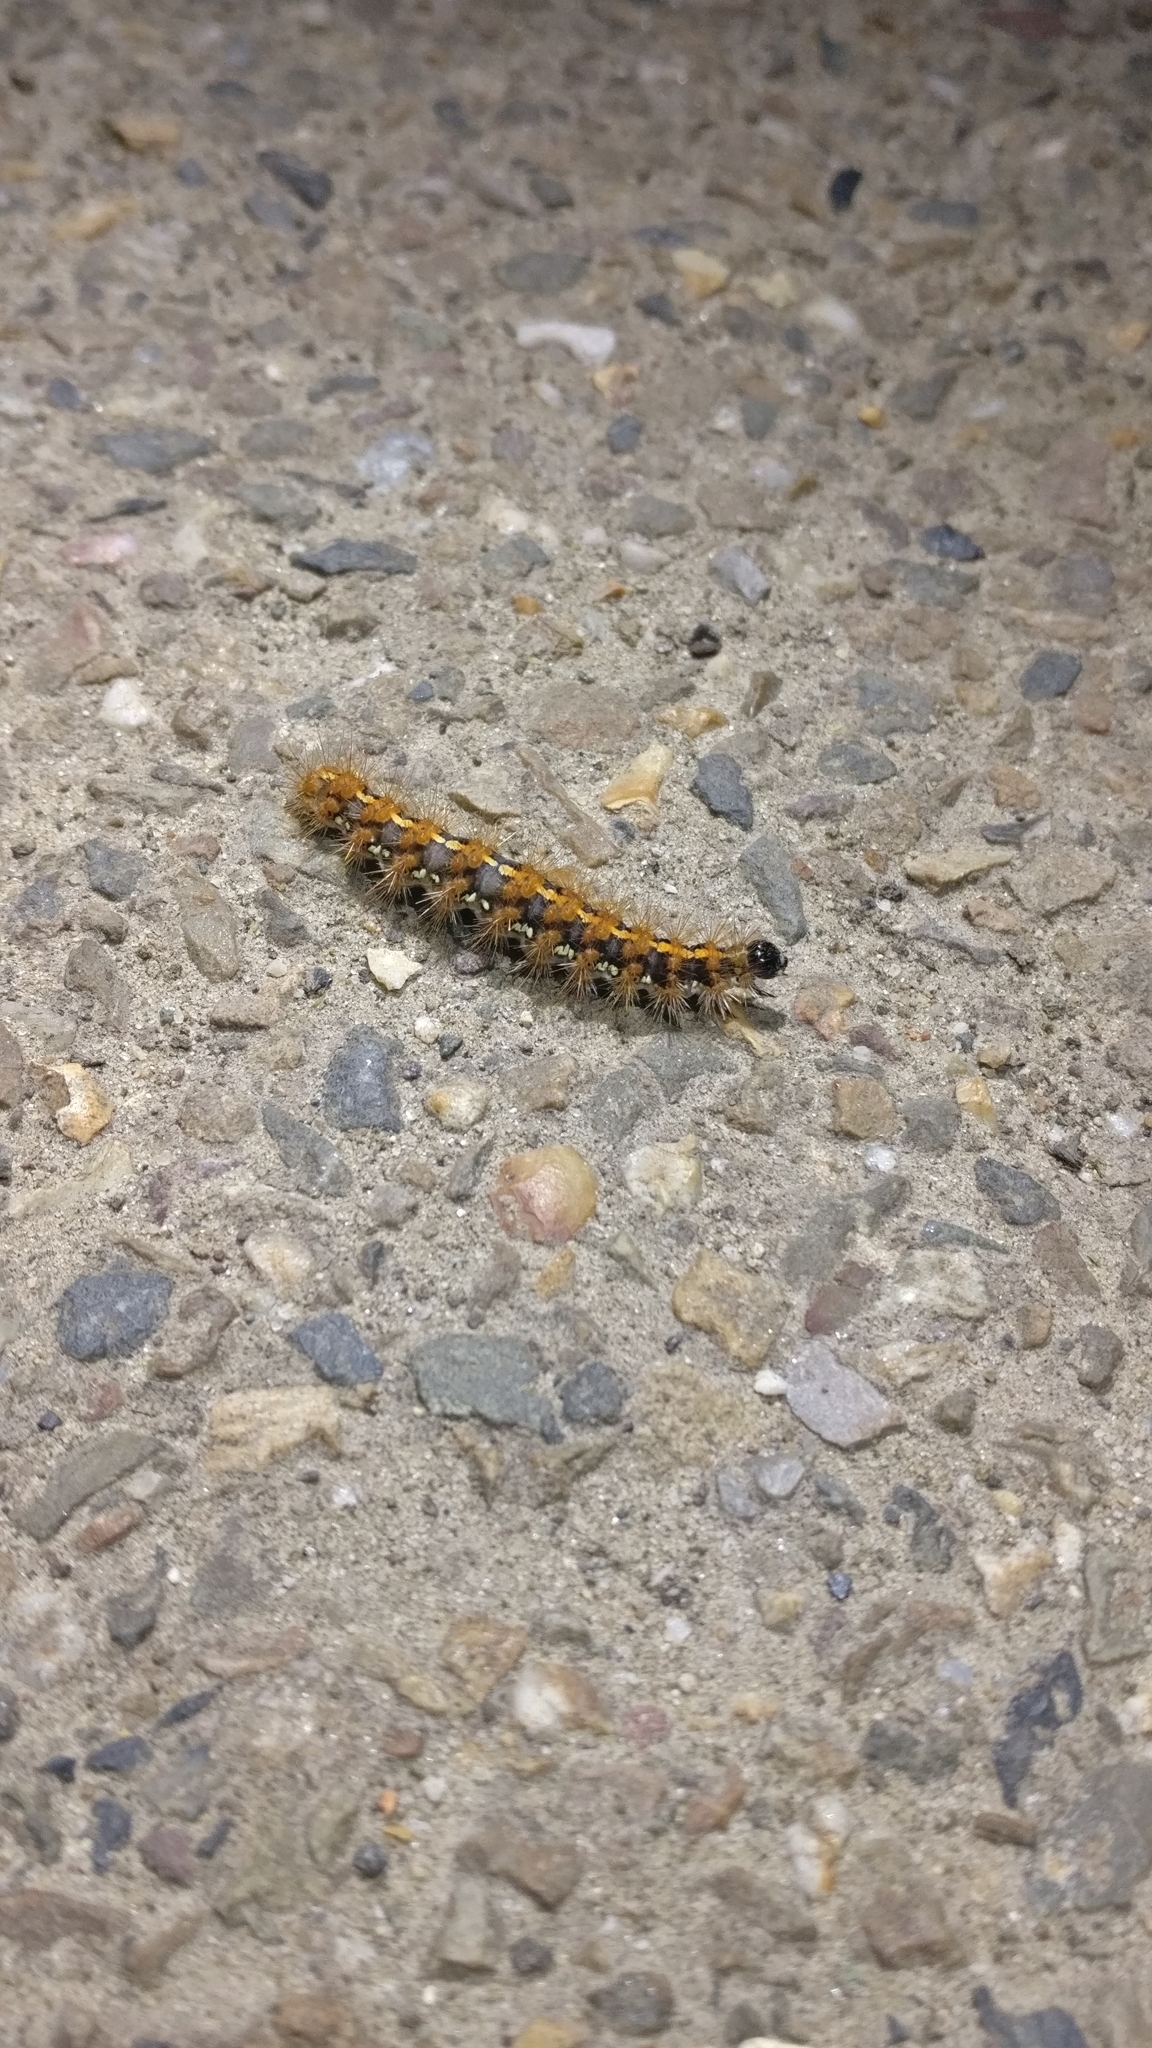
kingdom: Animalia
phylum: Arthropoda
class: Insecta
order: Lepidoptera
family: Erebidae
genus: Euplagia
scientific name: Euplagia quadripunctaria
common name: Jersey tiger
